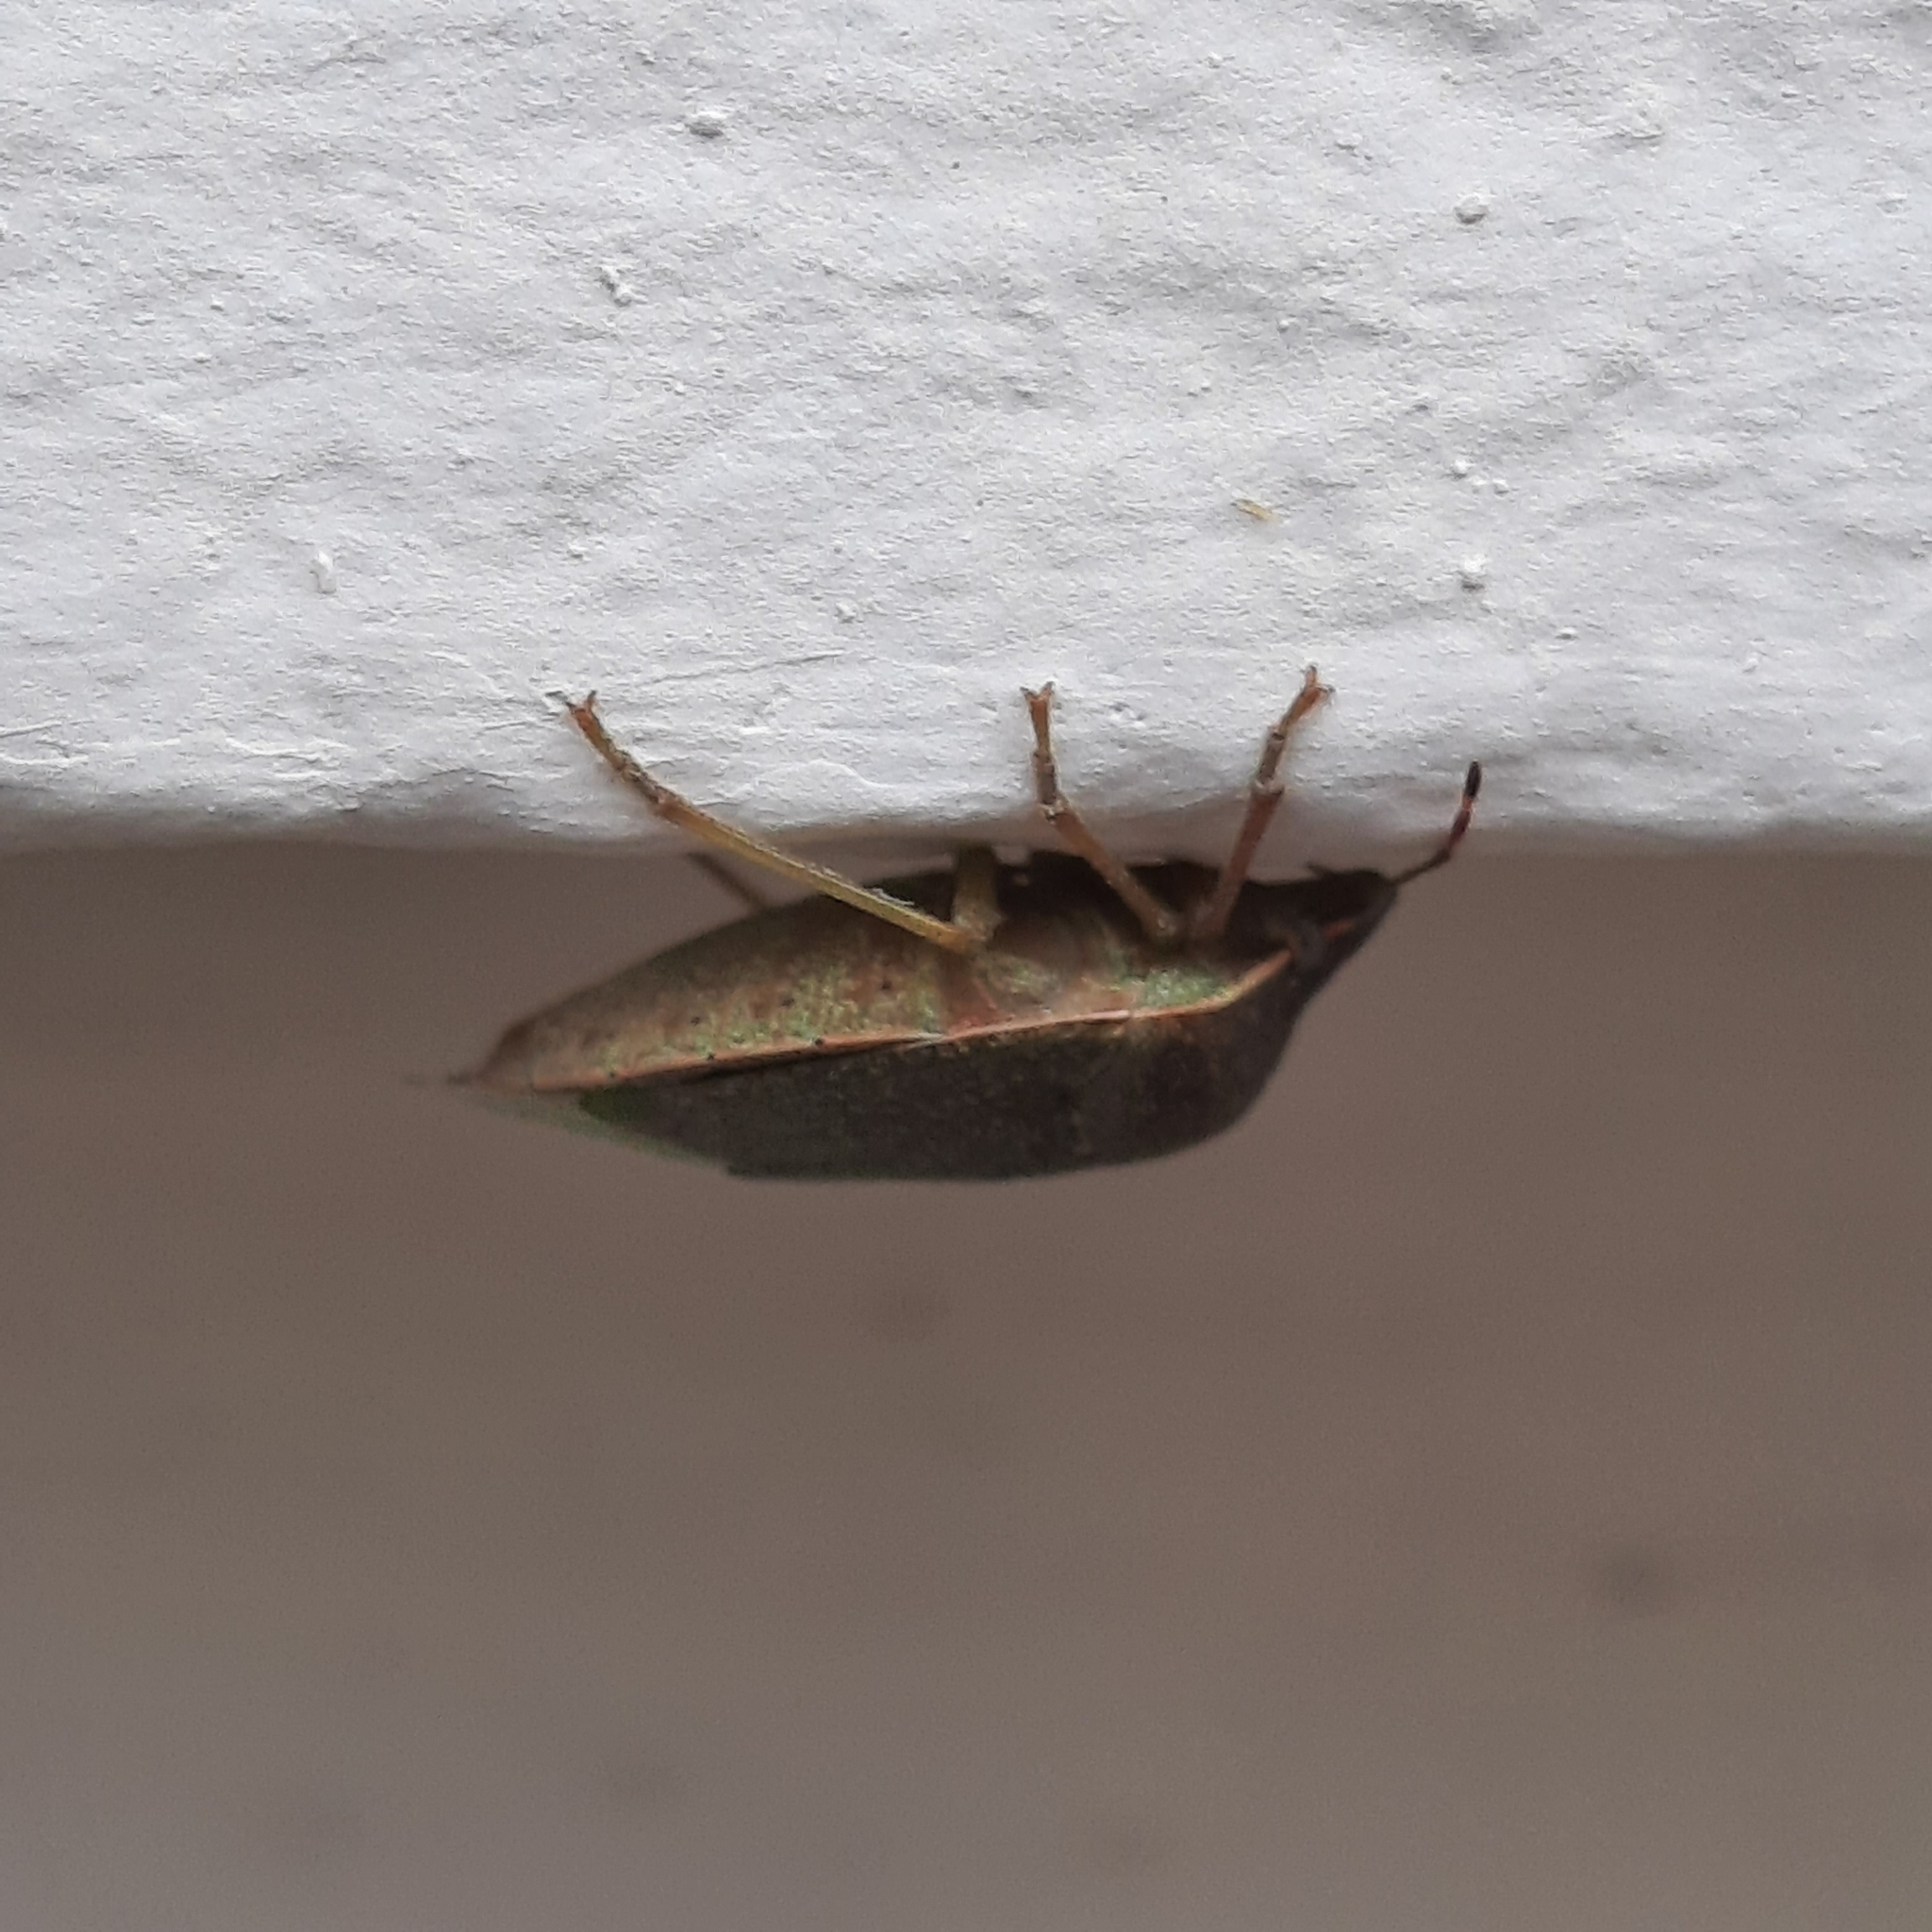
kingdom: Animalia
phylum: Arthropoda
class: Insecta
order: Hemiptera
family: Pentatomidae
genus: Nezara
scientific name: Nezara viridula
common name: Southern green stink bug
